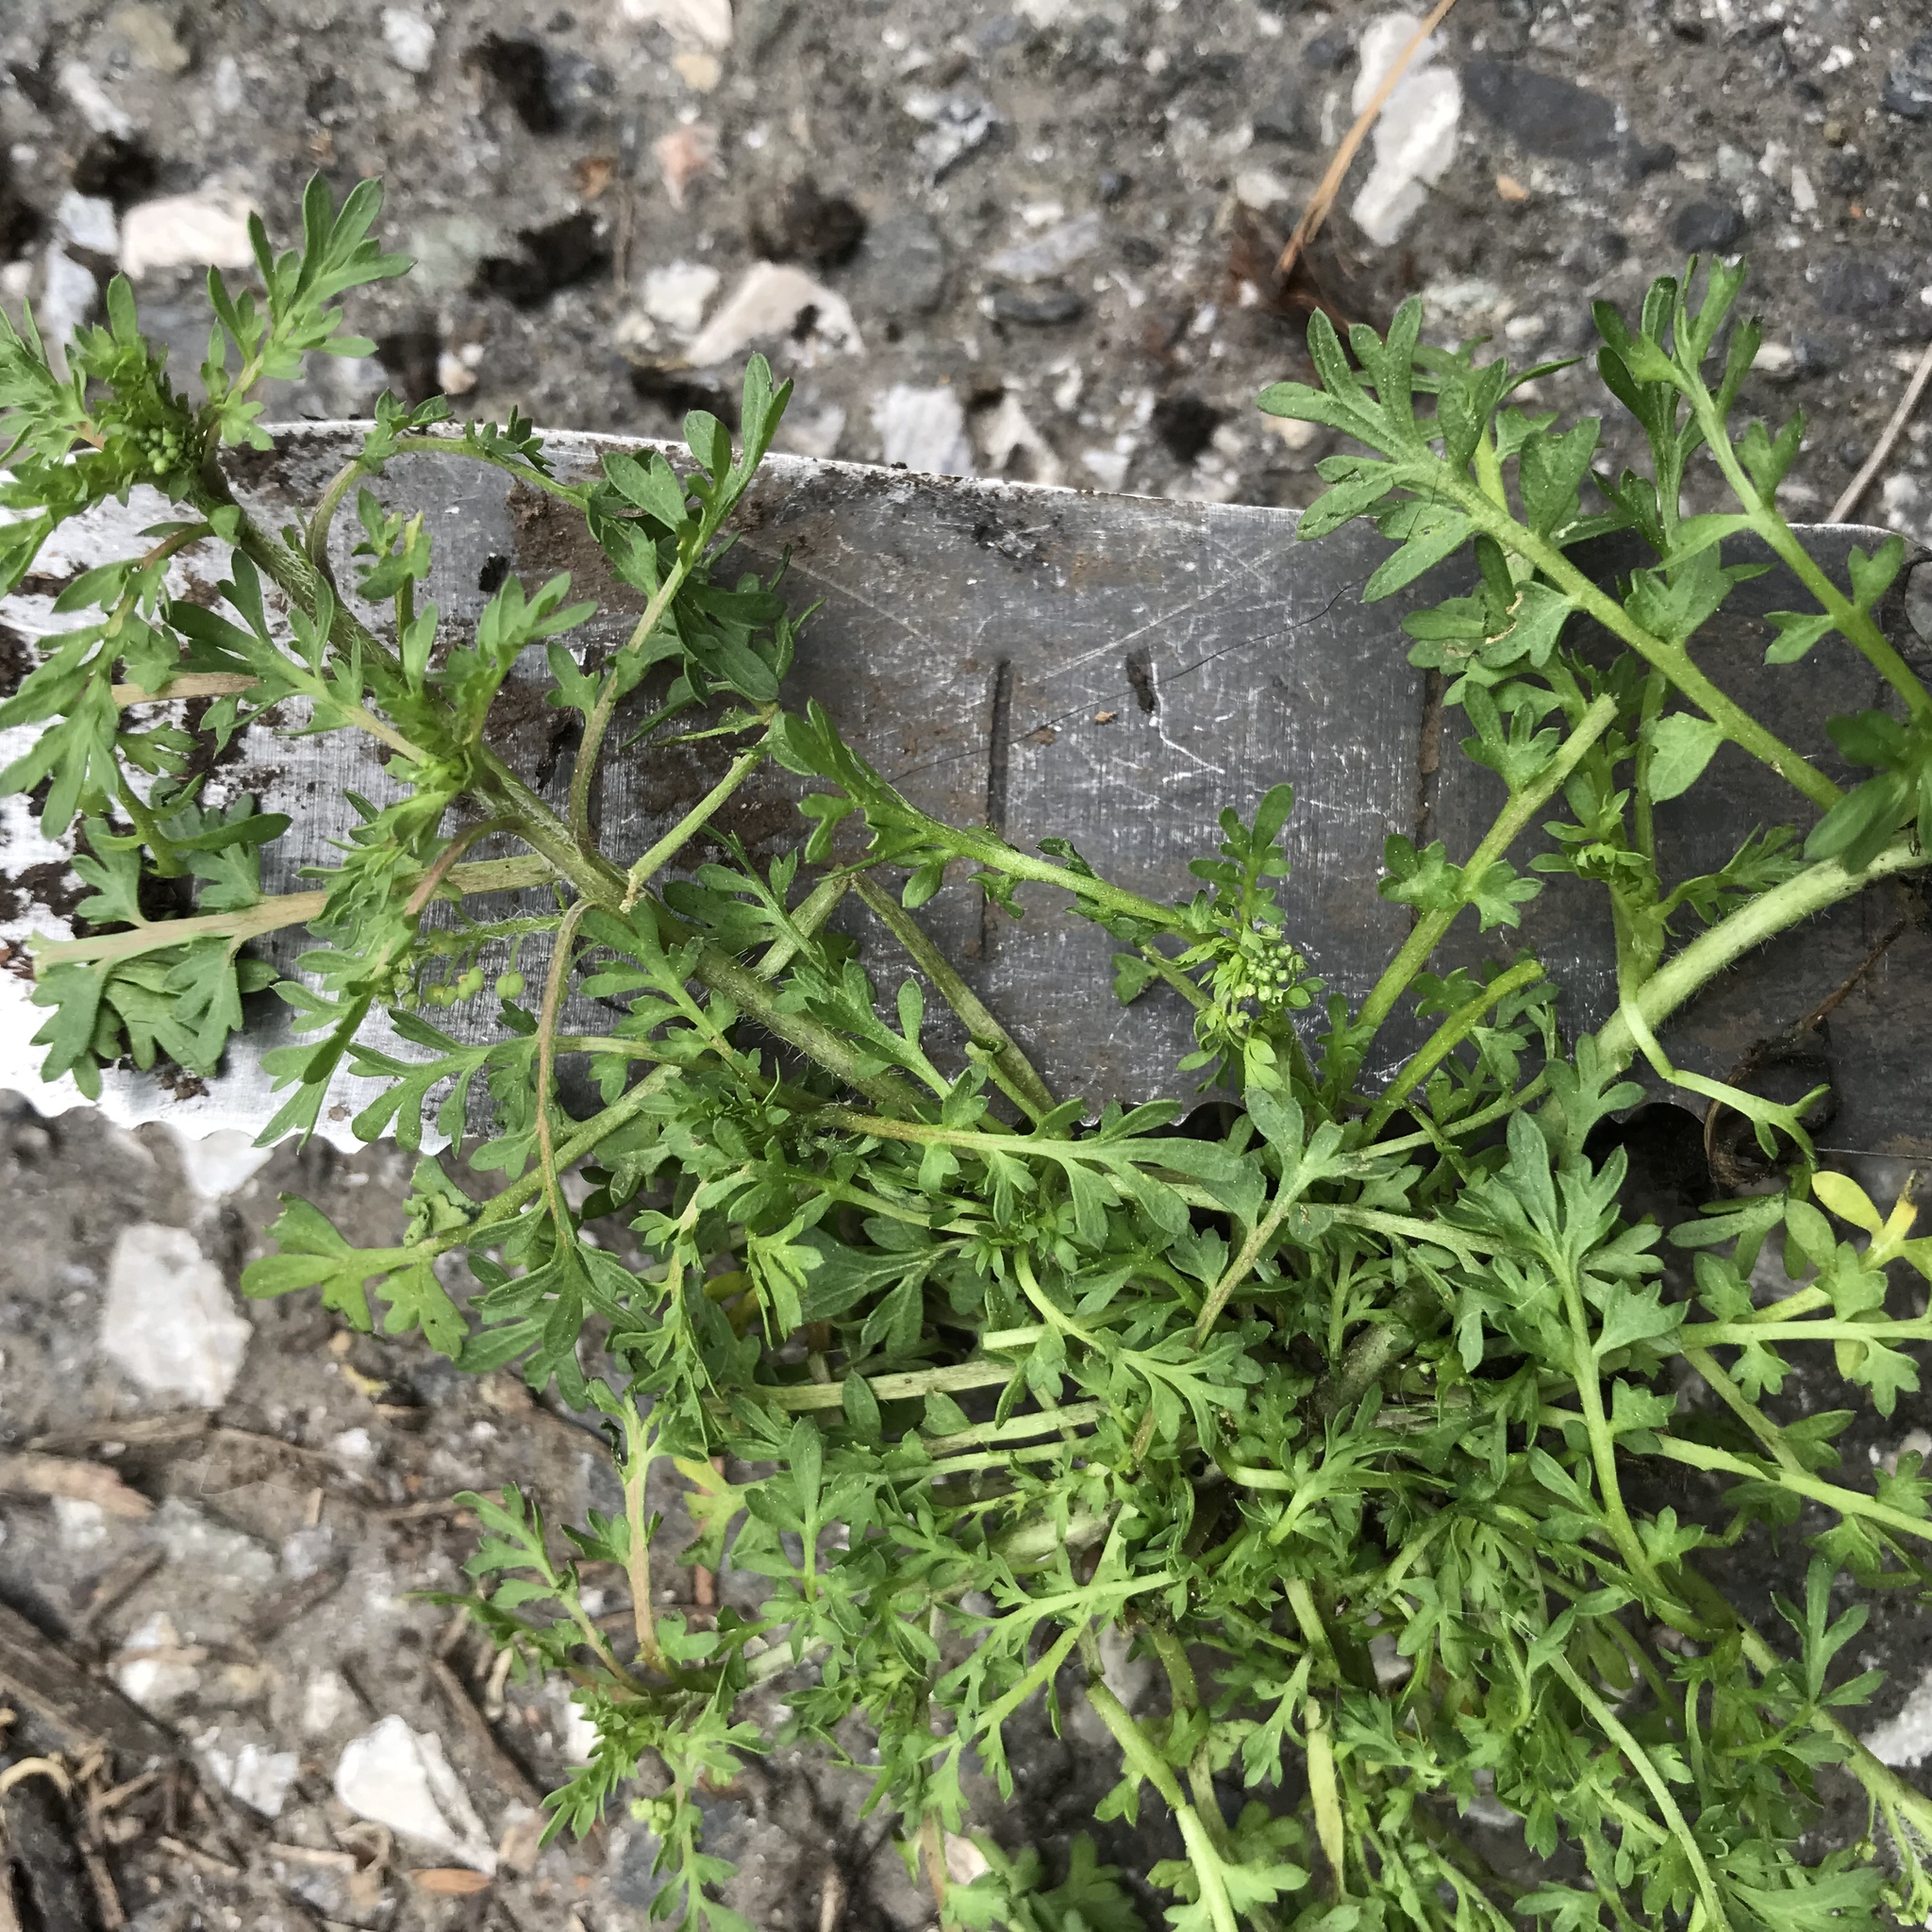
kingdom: Plantae
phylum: Tracheophyta
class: Magnoliopsida
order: Brassicales
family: Brassicaceae
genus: Lepidium
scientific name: Lepidium didymum
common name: Lesser swinecress
